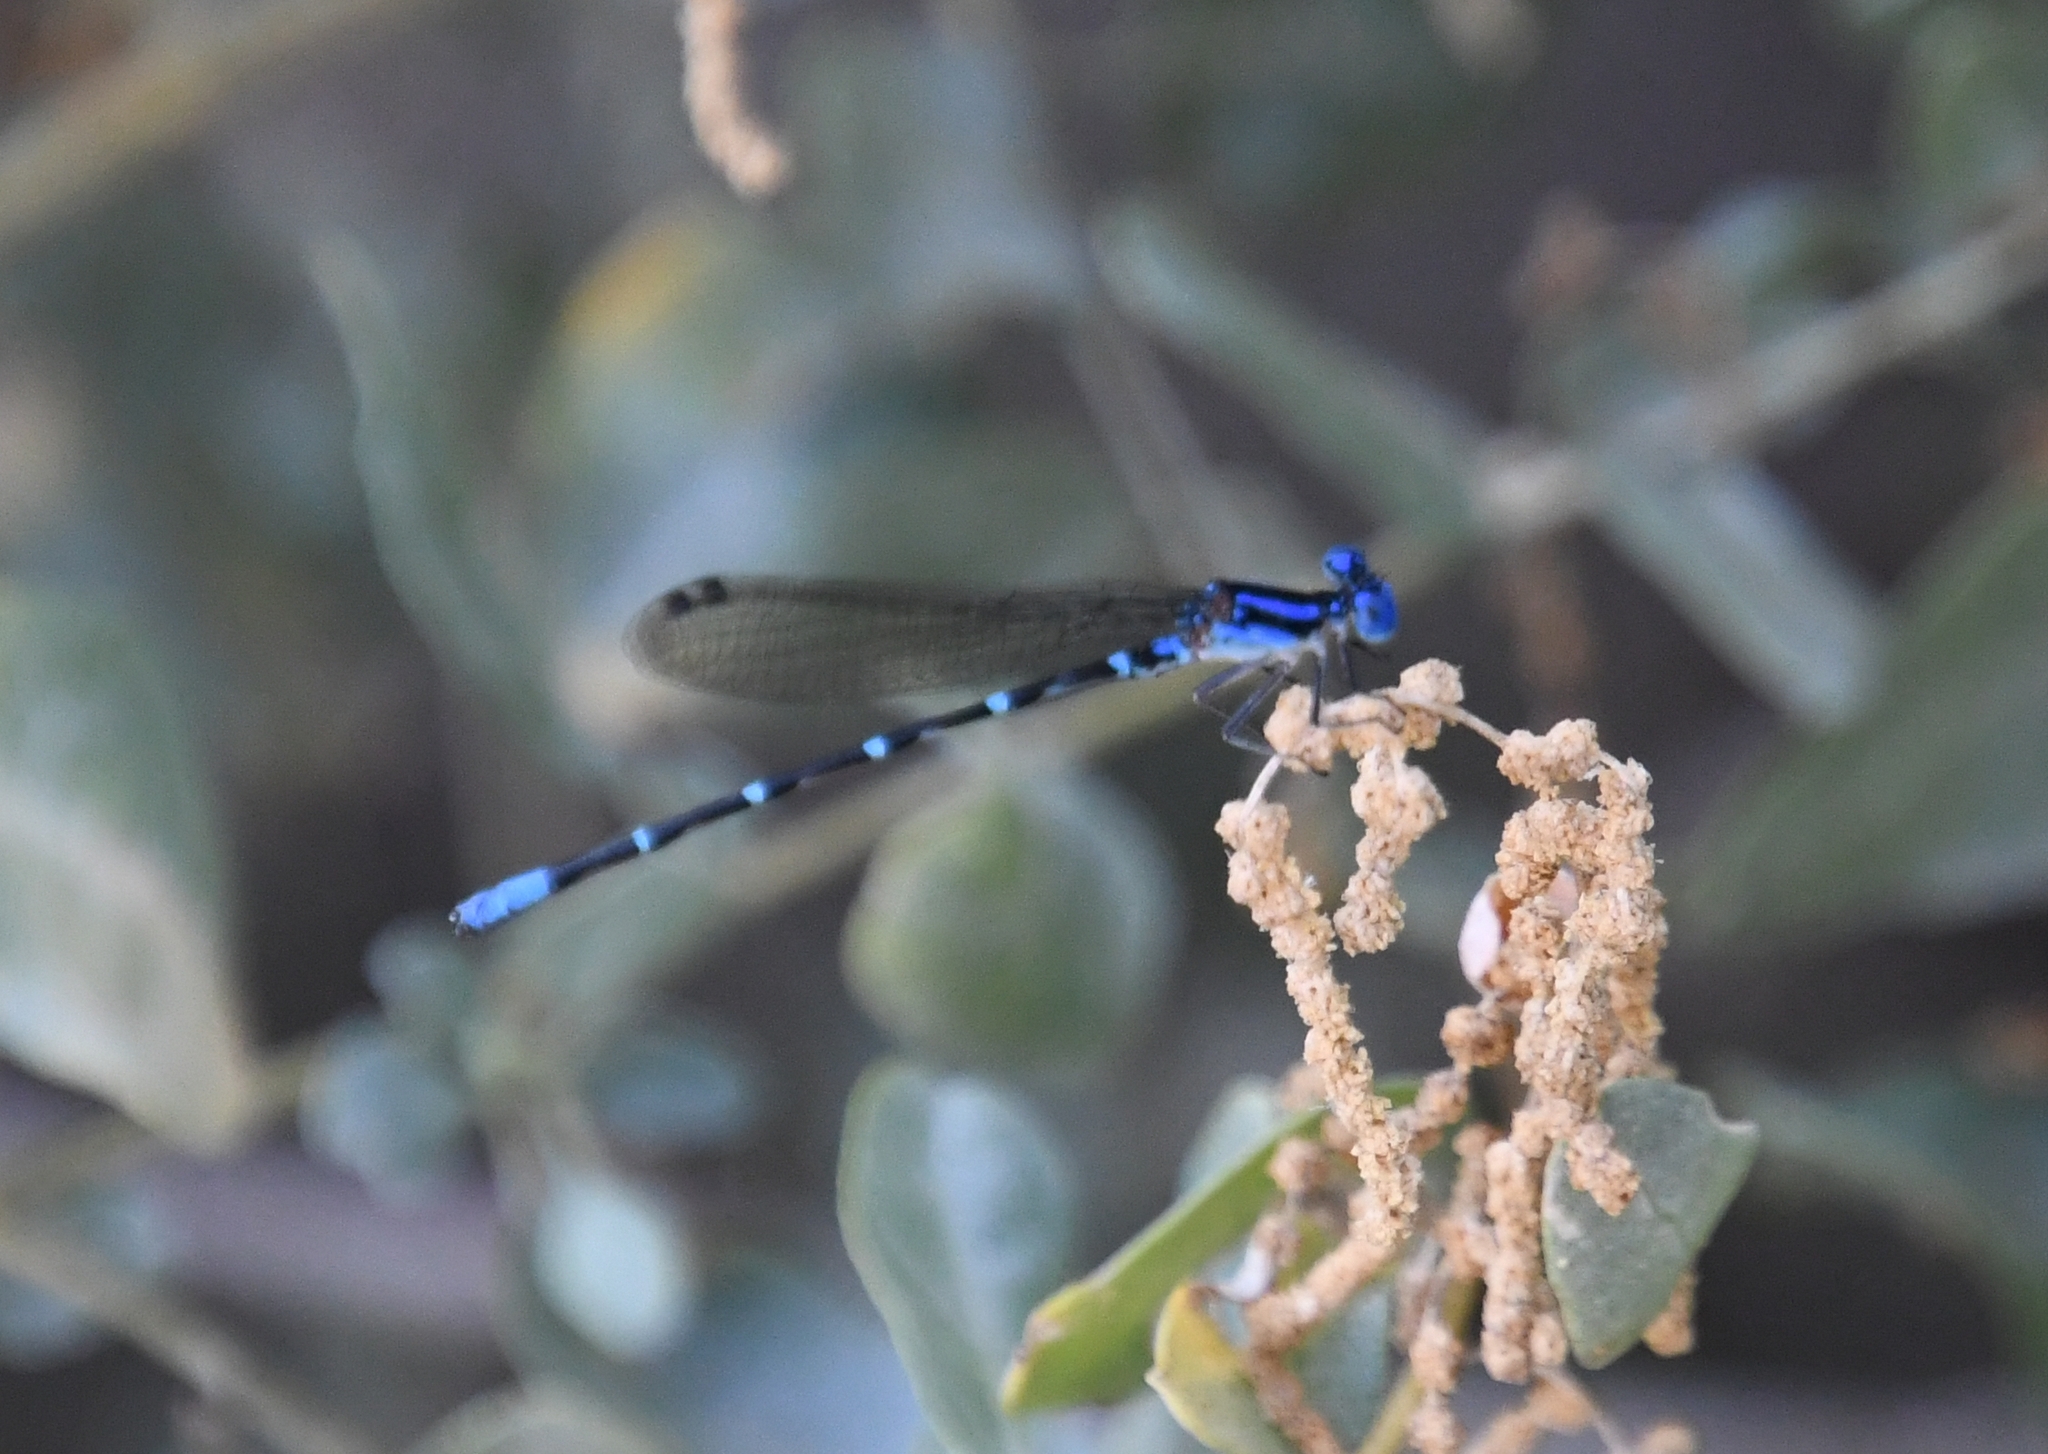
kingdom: Animalia
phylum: Arthropoda
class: Insecta
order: Odonata
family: Coenagrionidae
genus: Argia
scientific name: Argia sedula
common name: Blue-ringed dancer
